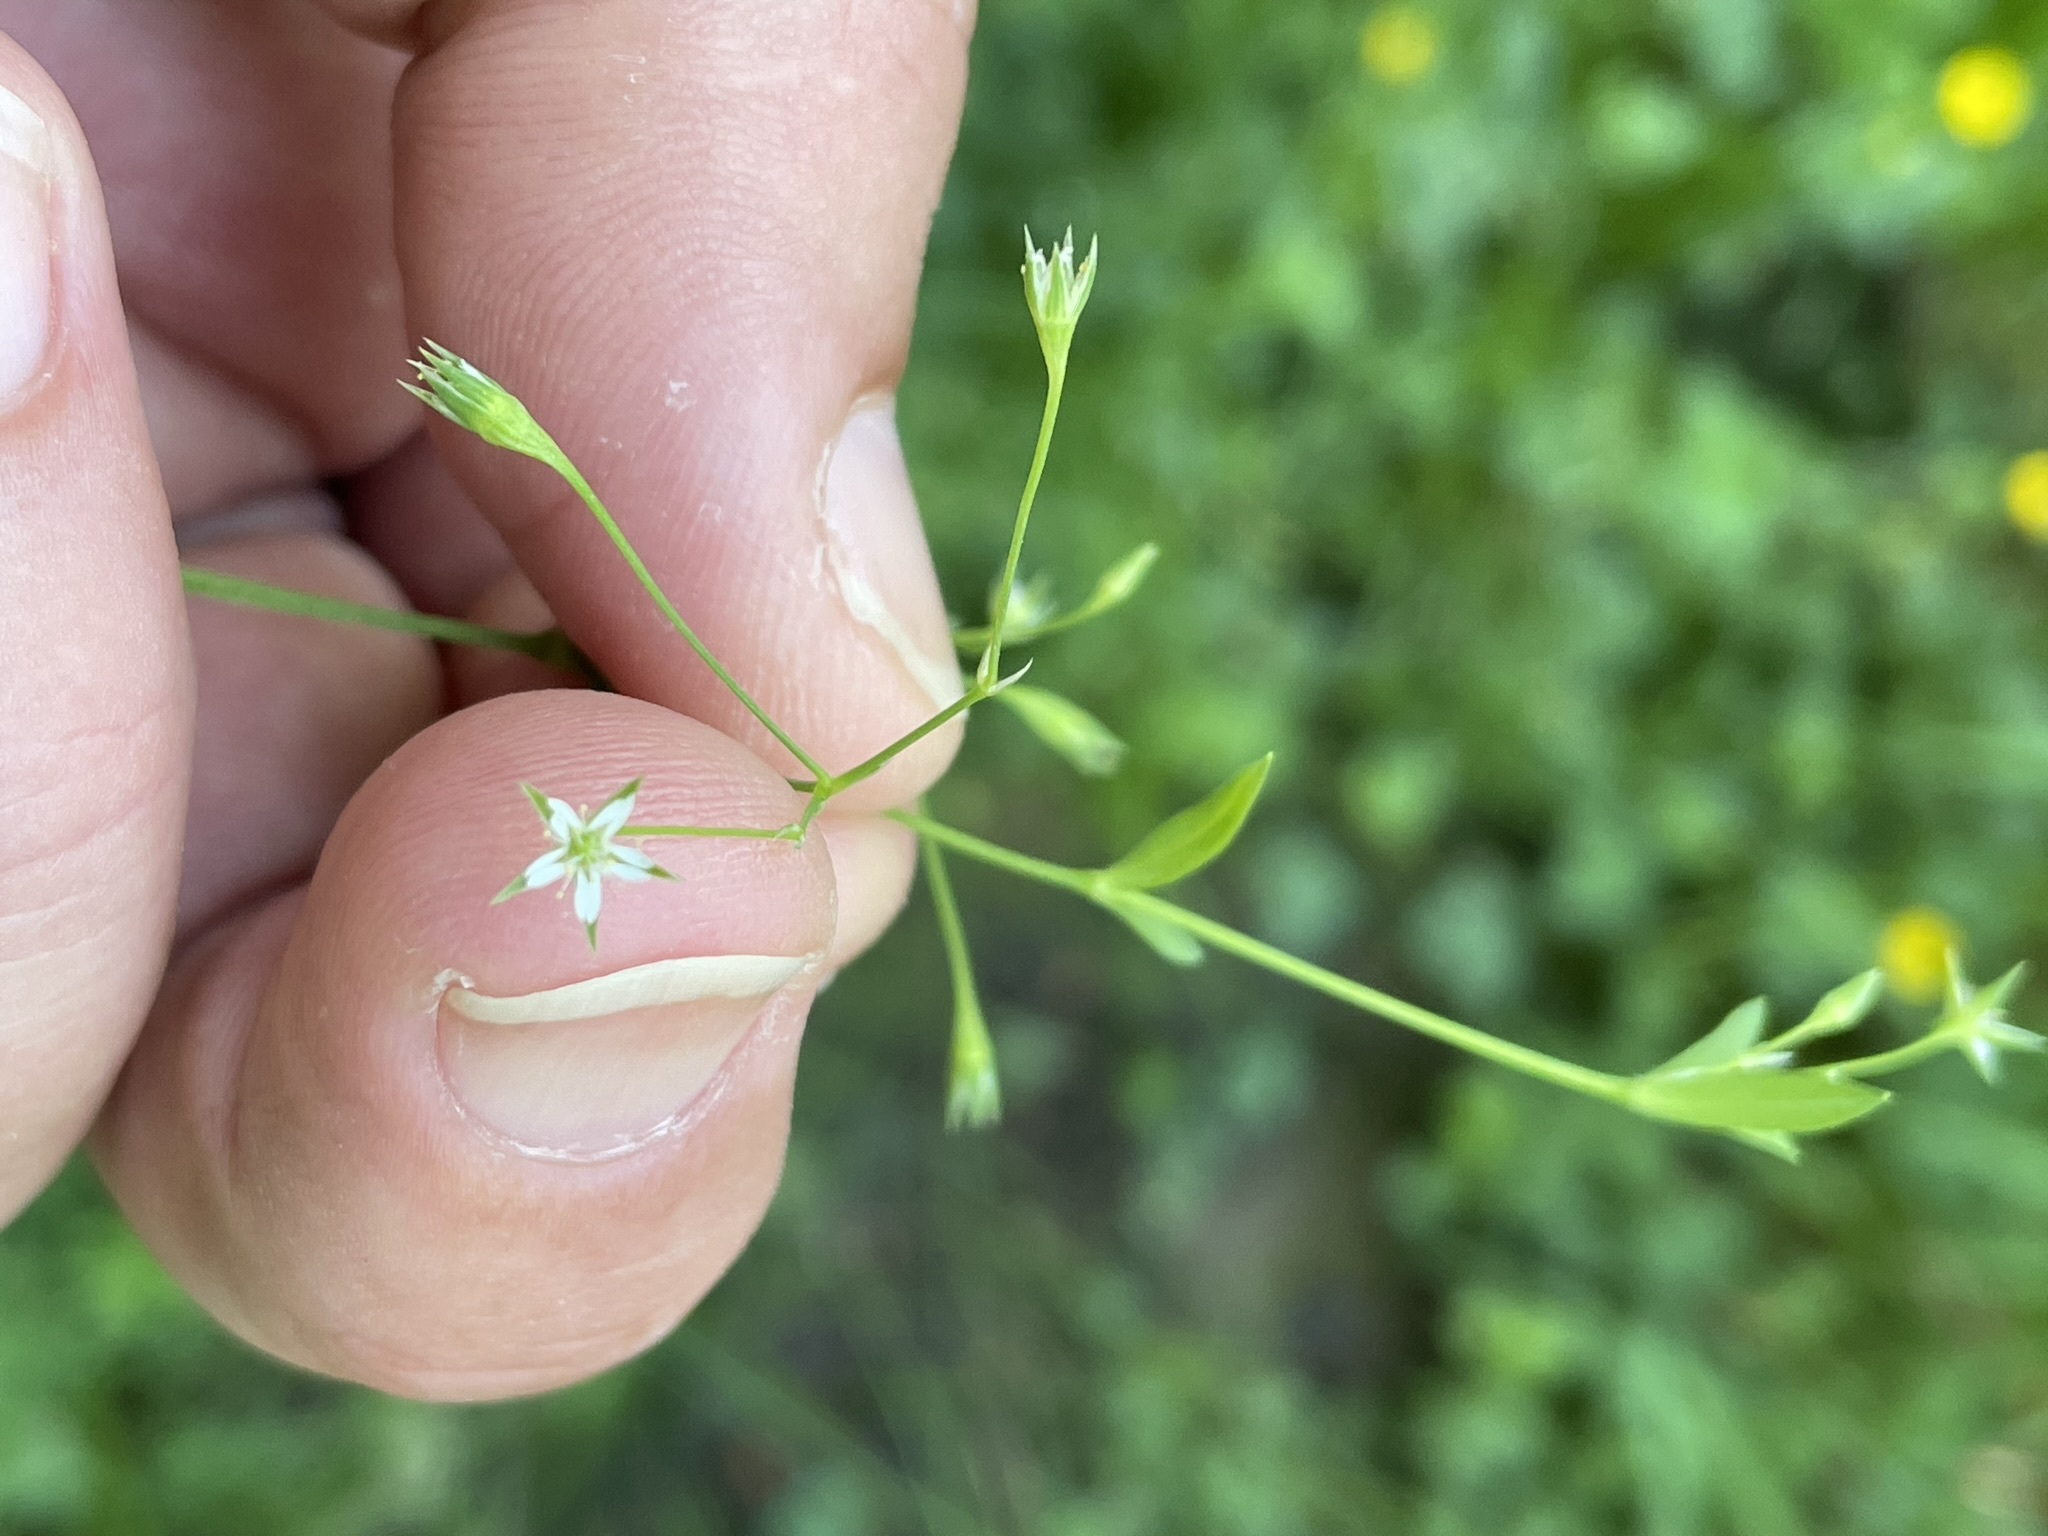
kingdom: Plantae
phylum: Tracheophyta
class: Magnoliopsida
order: Caryophyllales
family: Caryophyllaceae
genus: Stellaria
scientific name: Stellaria alsine
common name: Bog stitchwort
